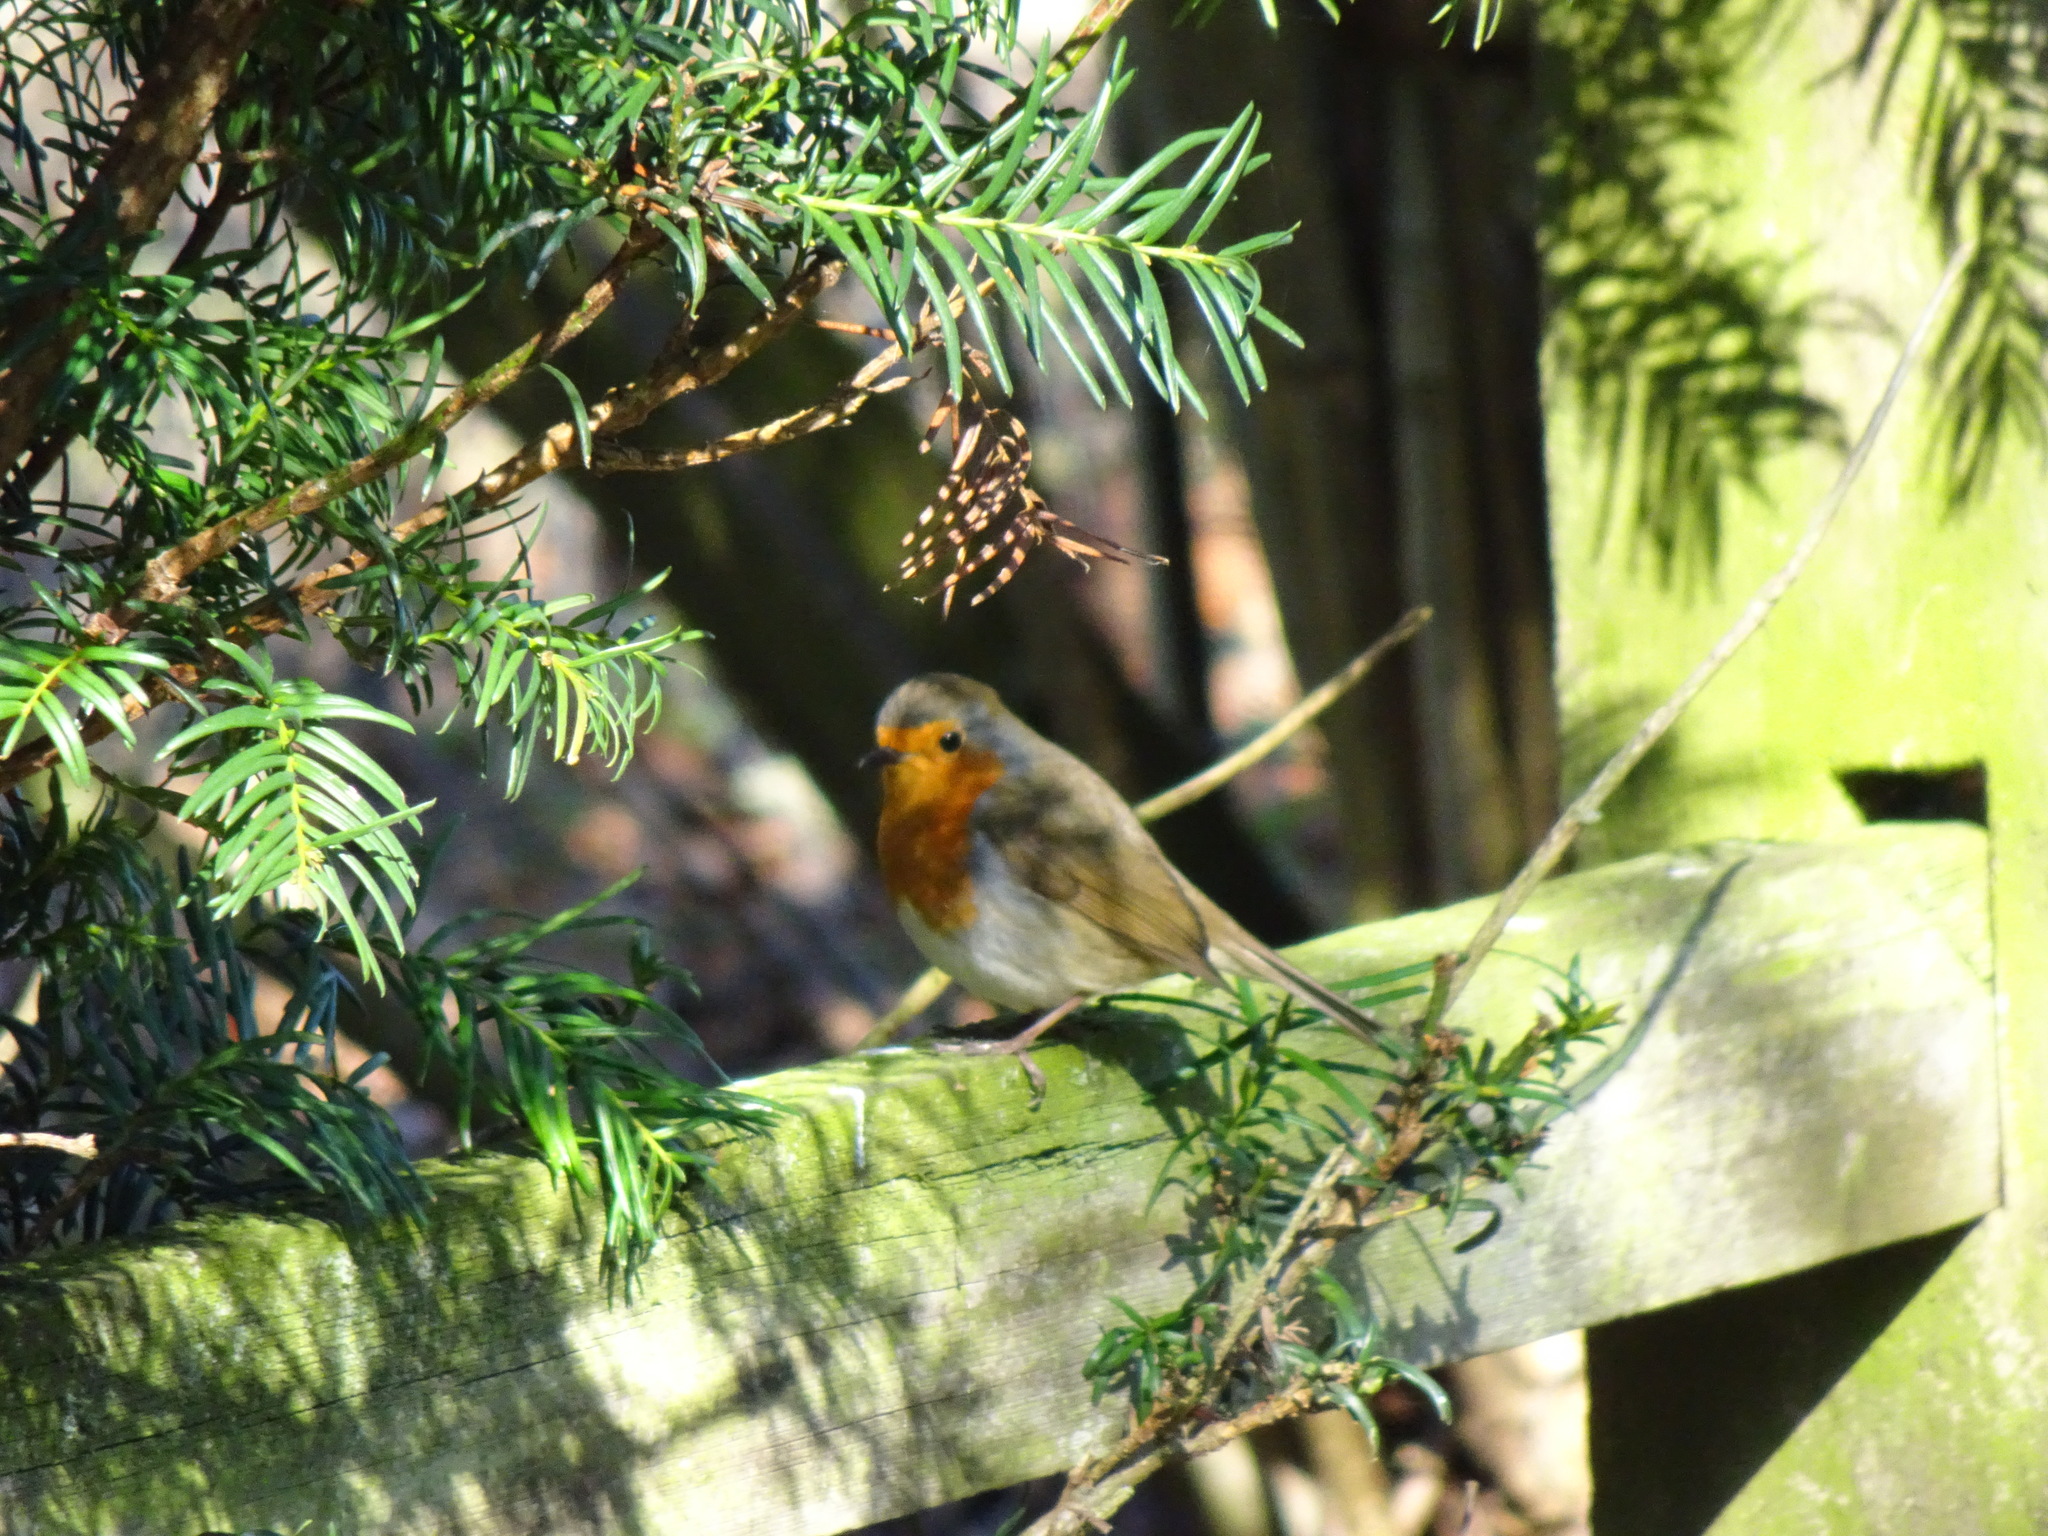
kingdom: Animalia
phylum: Chordata
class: Aves
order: Passeriformes
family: Muscicapidae
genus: Erithacus
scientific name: Erithacus rubecula
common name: European robin
